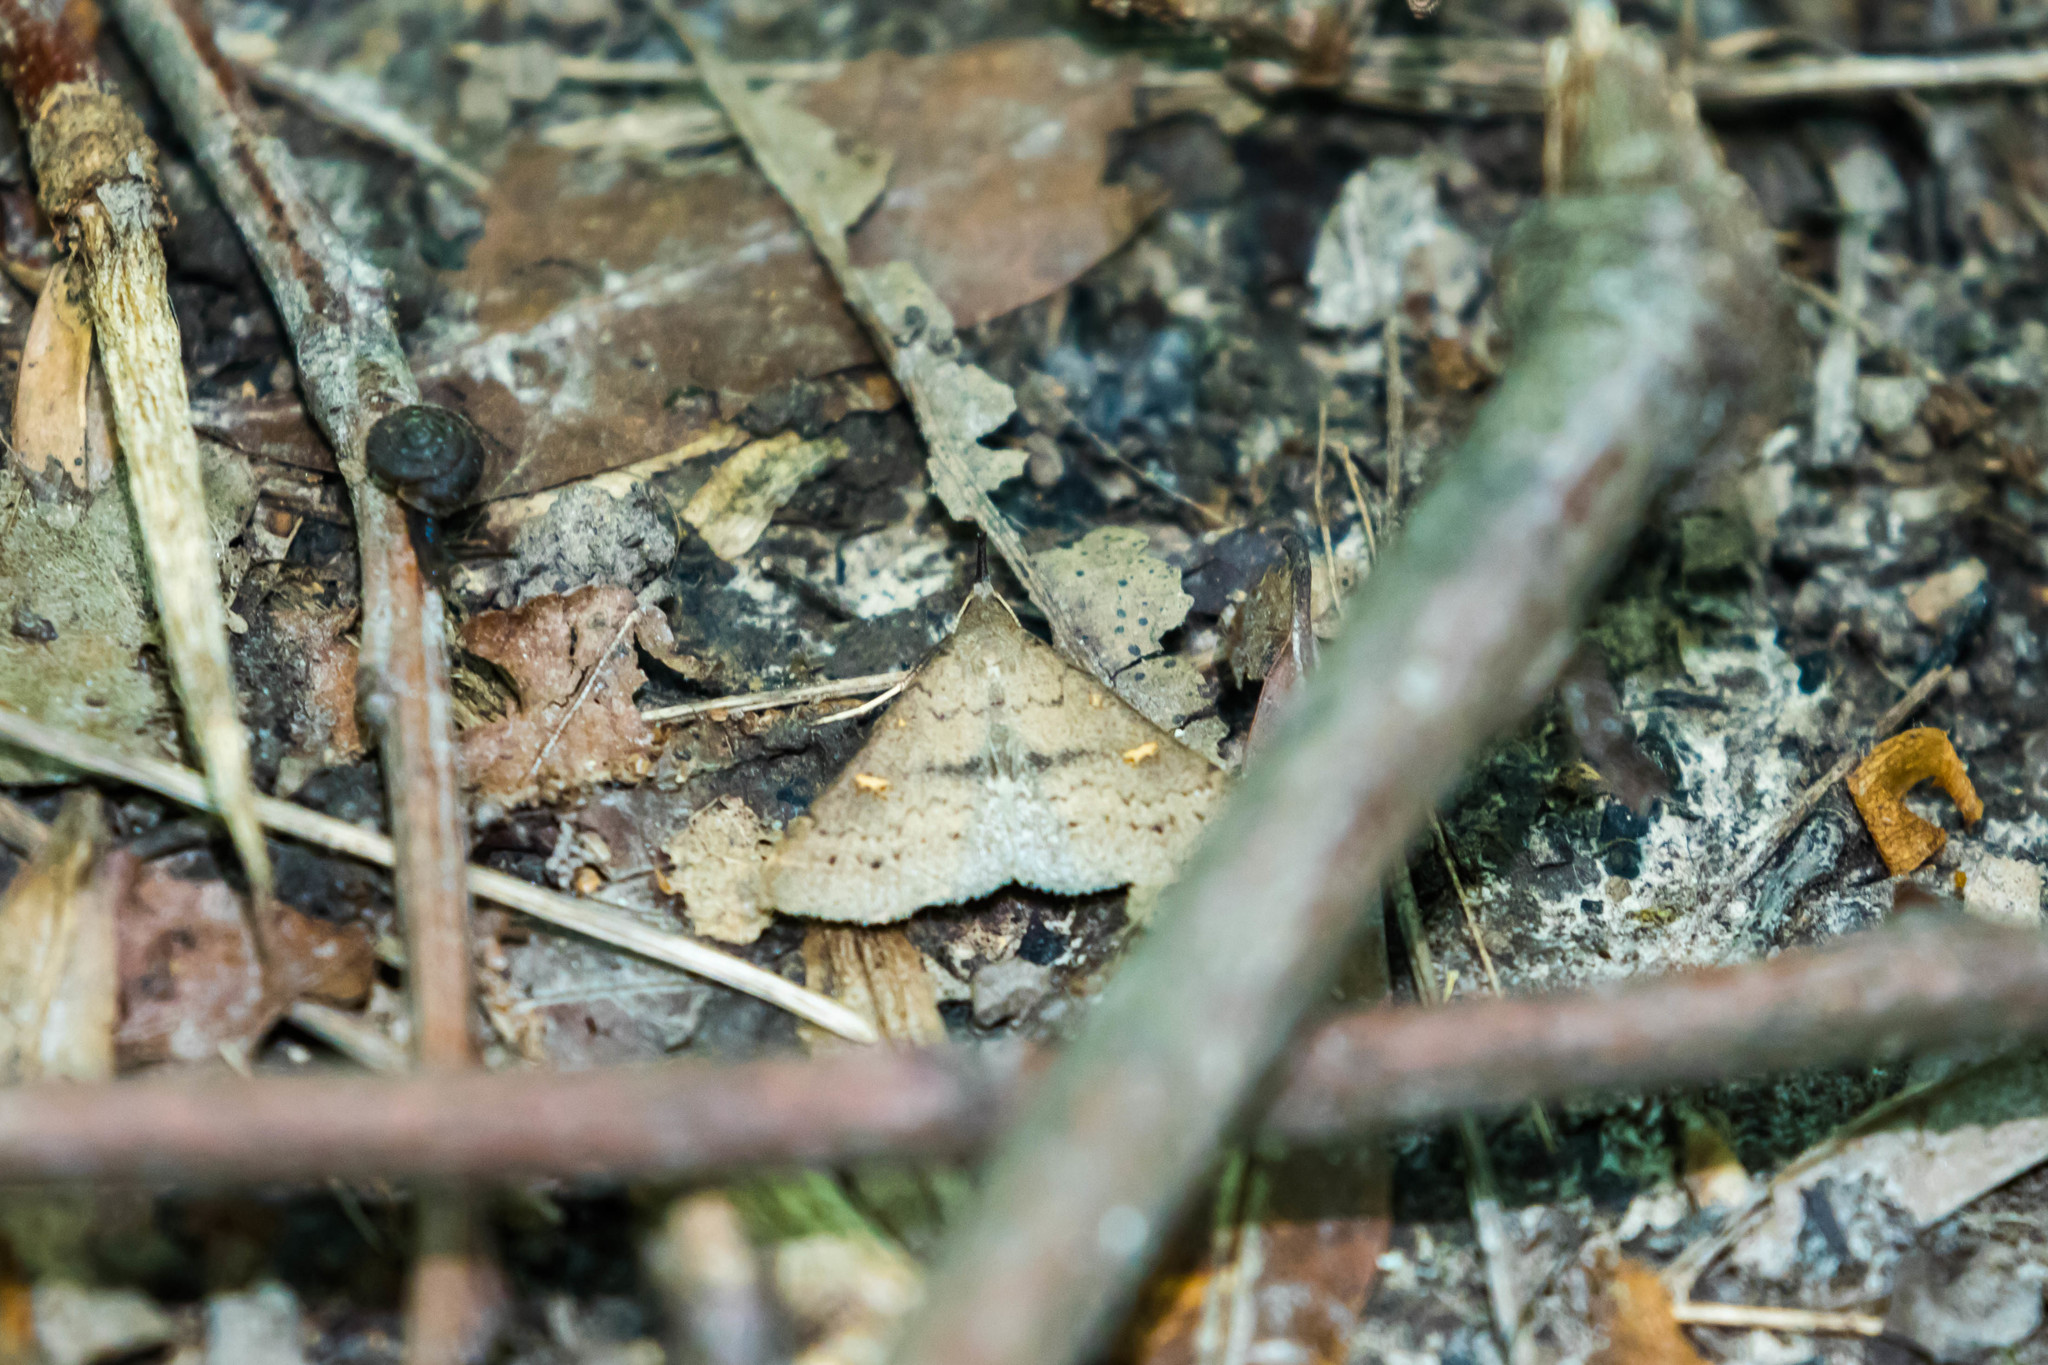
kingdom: Animalia
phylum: Arthropoda
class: Insecta
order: Lepidoptera
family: Erebidae
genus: Renia
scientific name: Renia adspergillus
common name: Speckled renia moth
